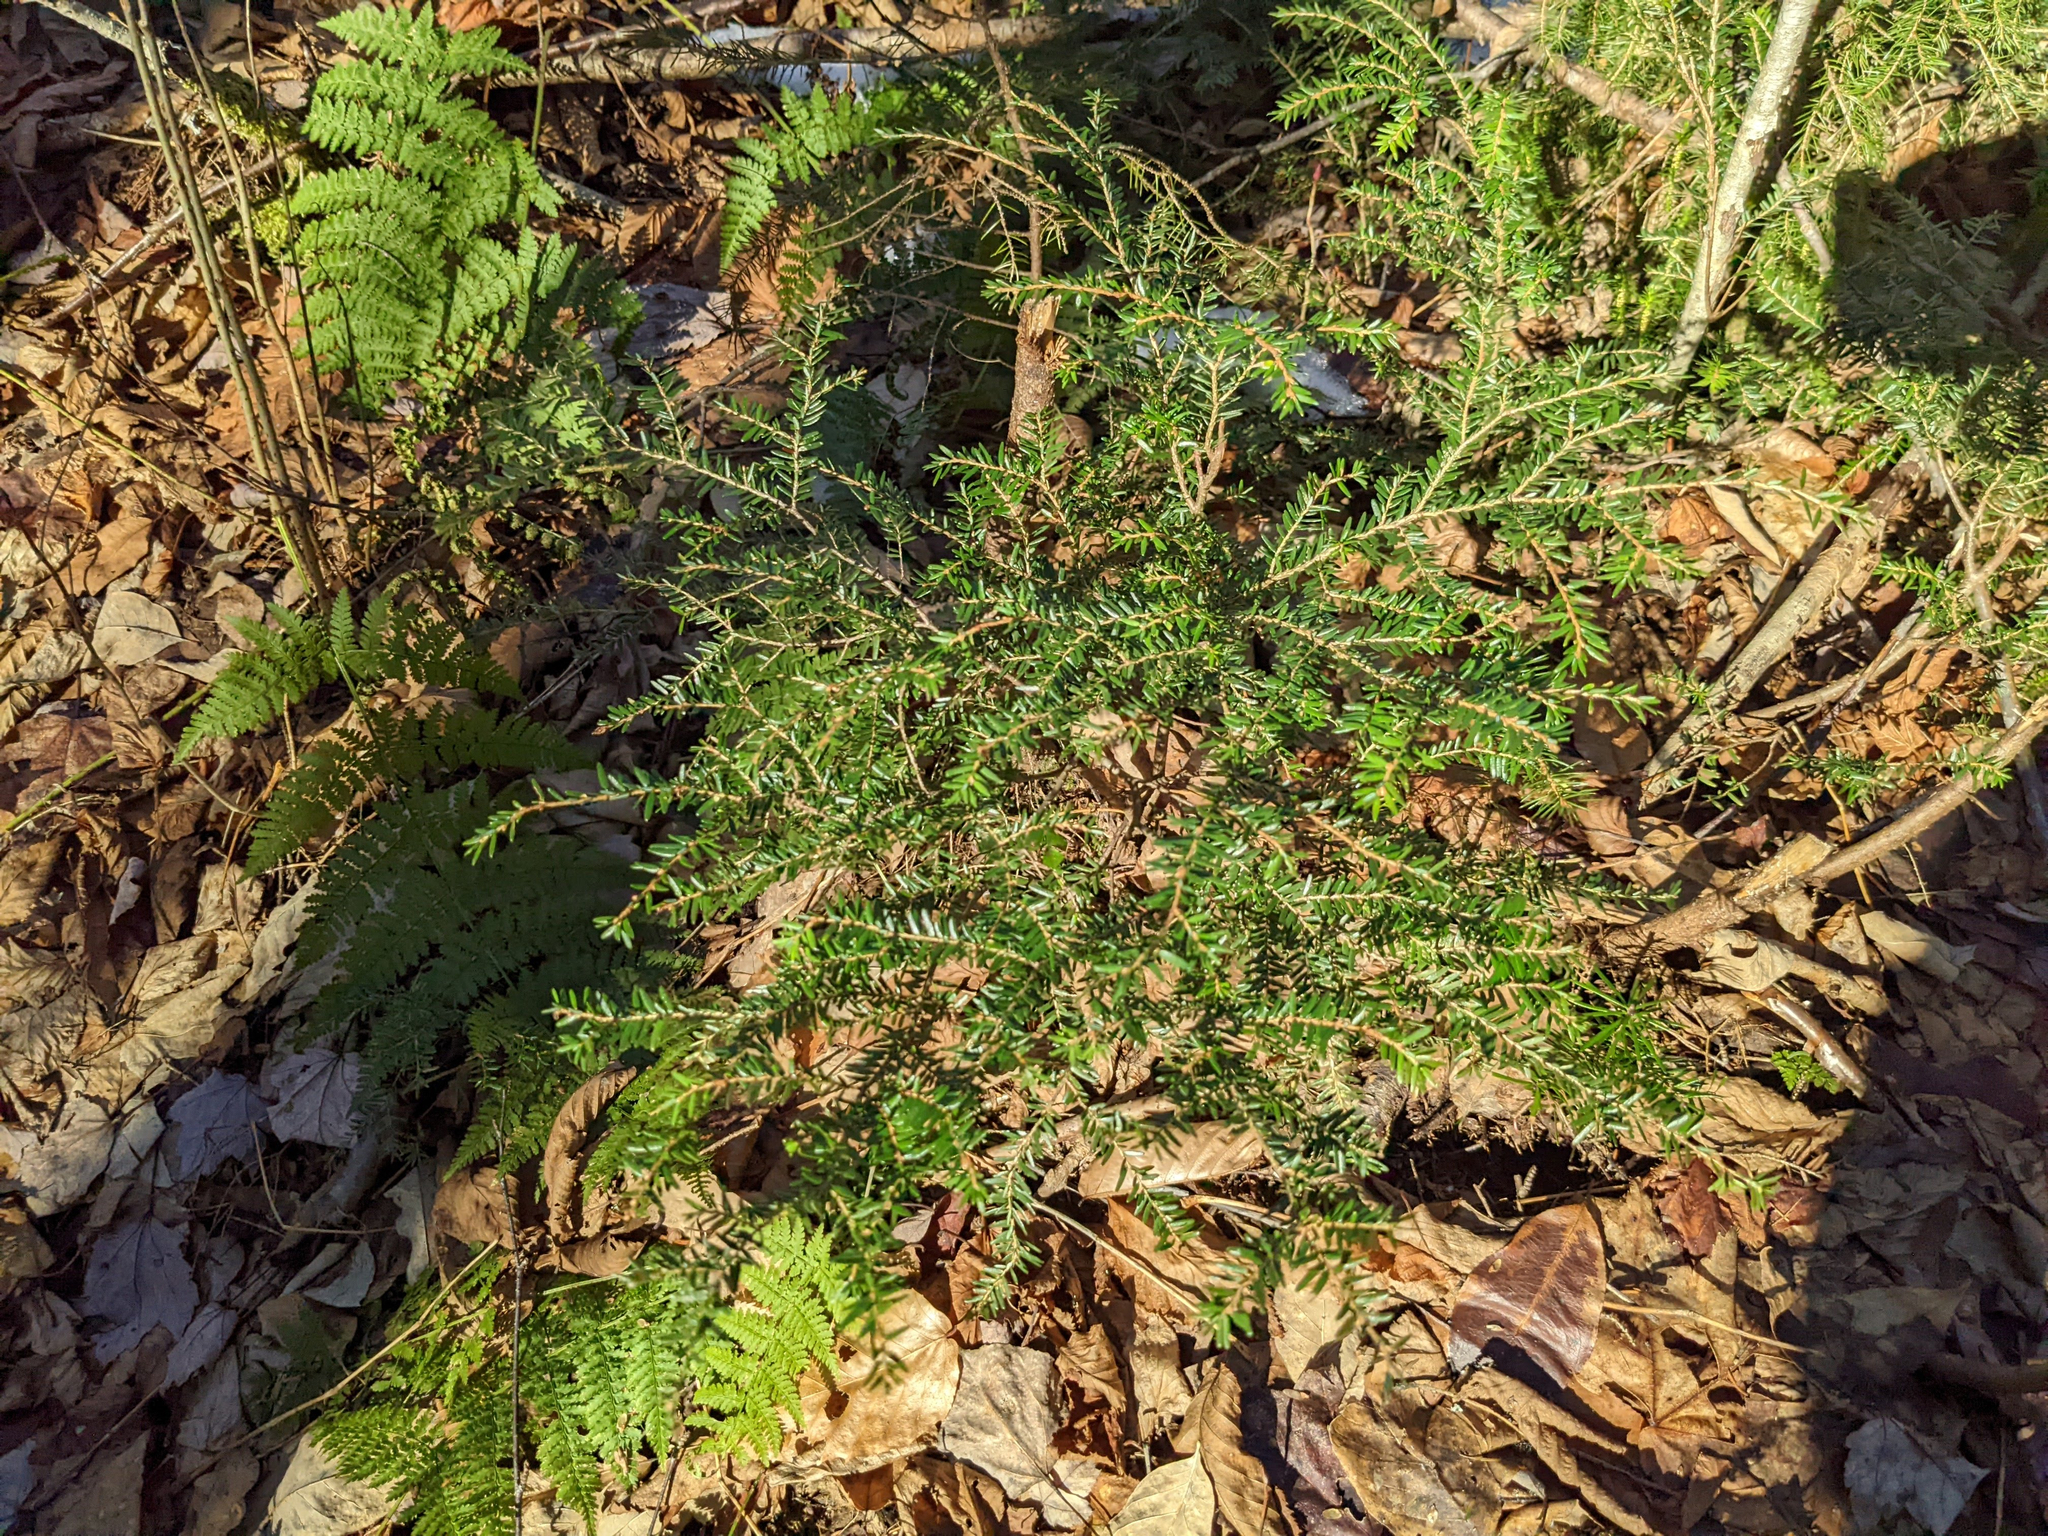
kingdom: Plantae
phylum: Tracheophyta
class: Pinopsida
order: Pinales
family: Pinaceae
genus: Tsuga
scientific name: Tsuga canadensis
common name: Eastern hemlock
